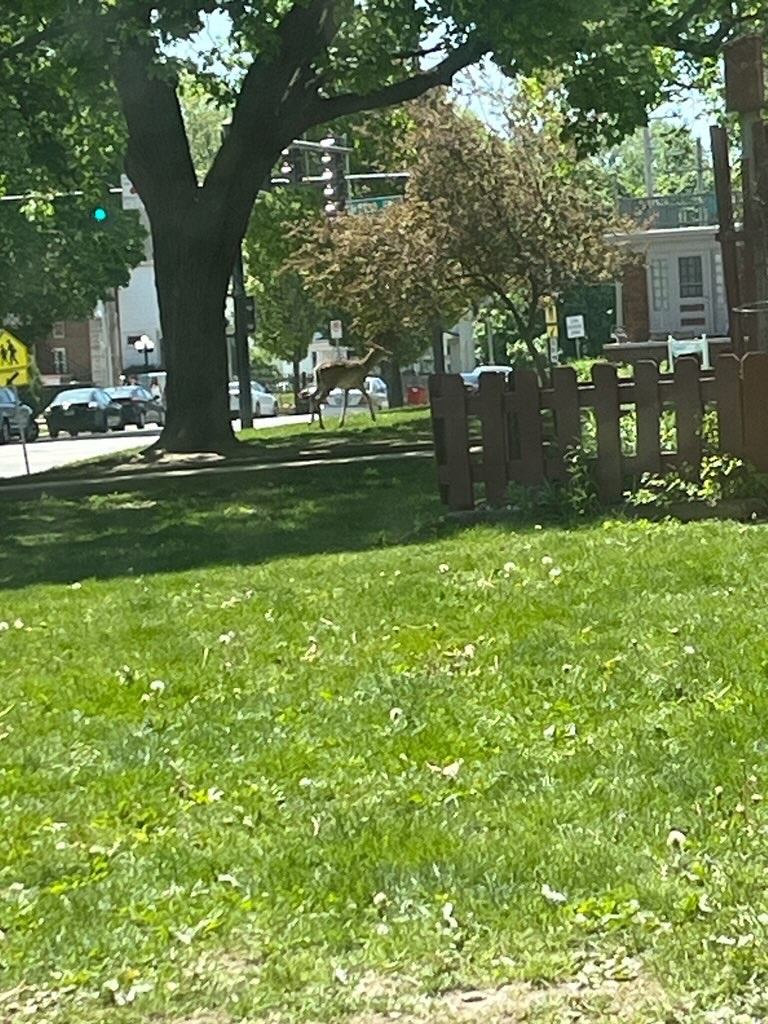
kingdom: Animalia
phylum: Chordata
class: Mammalia
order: Artiodactyla
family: Cervidae
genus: Odocoileus
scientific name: Odocoileus virginianus
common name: White-tailed deer
